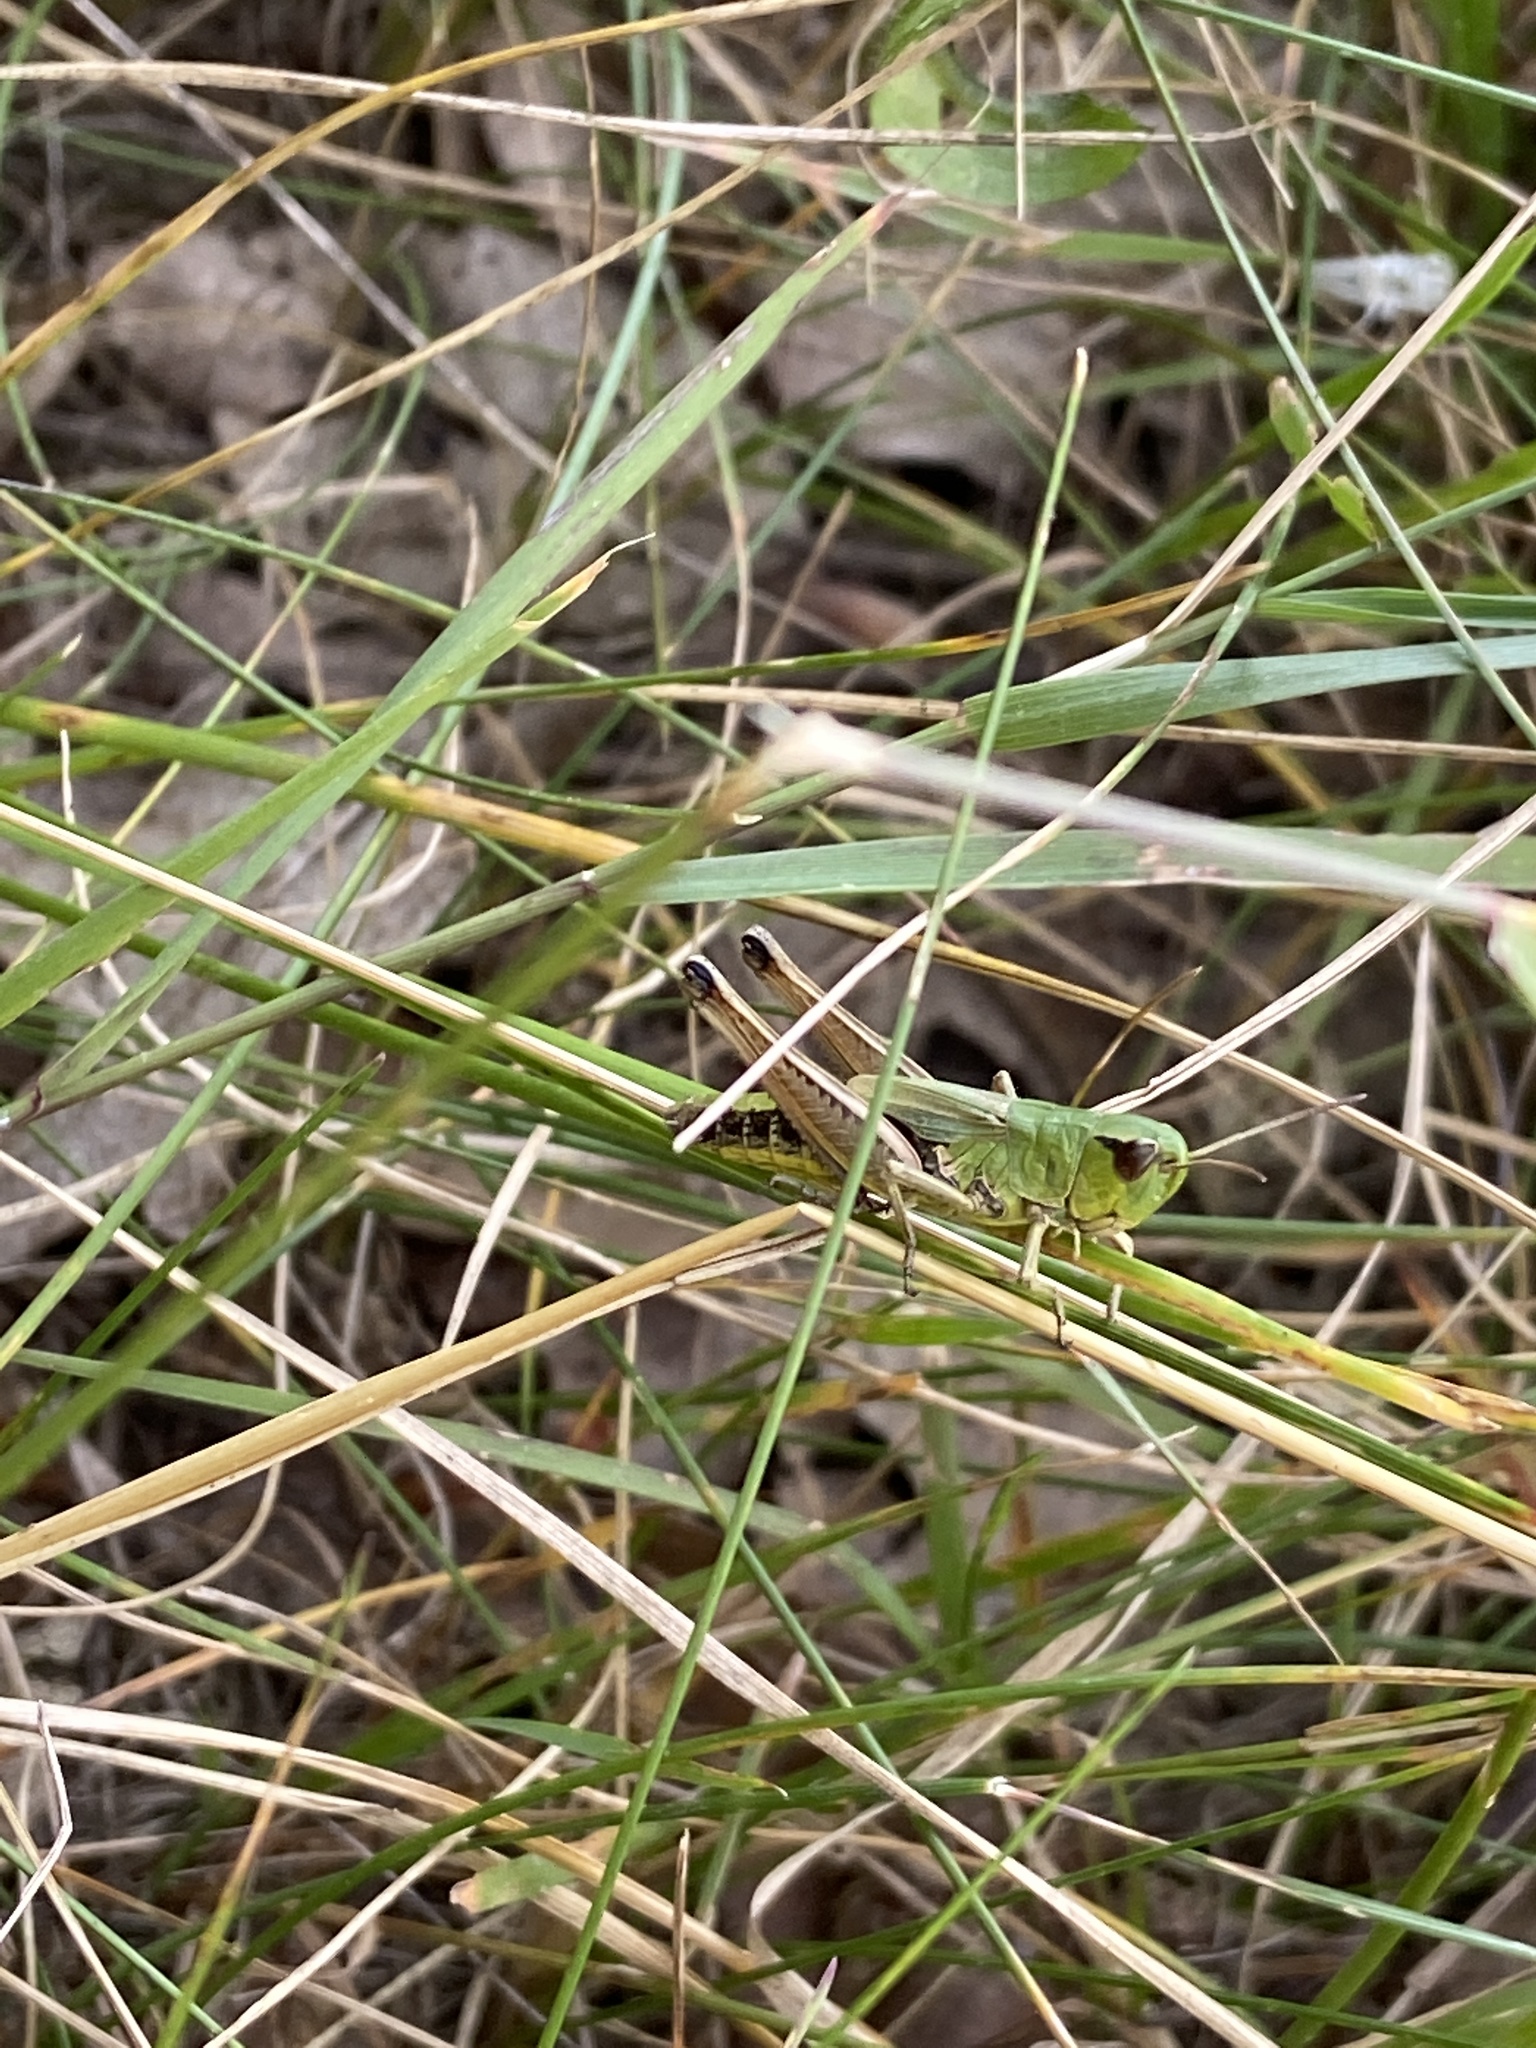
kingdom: Animalia
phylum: Arthropoda
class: Insecta
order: Orthoptera
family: Acrididae
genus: Pseudochorthippus
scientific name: Pseudochorthippus parallelus
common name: Meadow grasshopper
